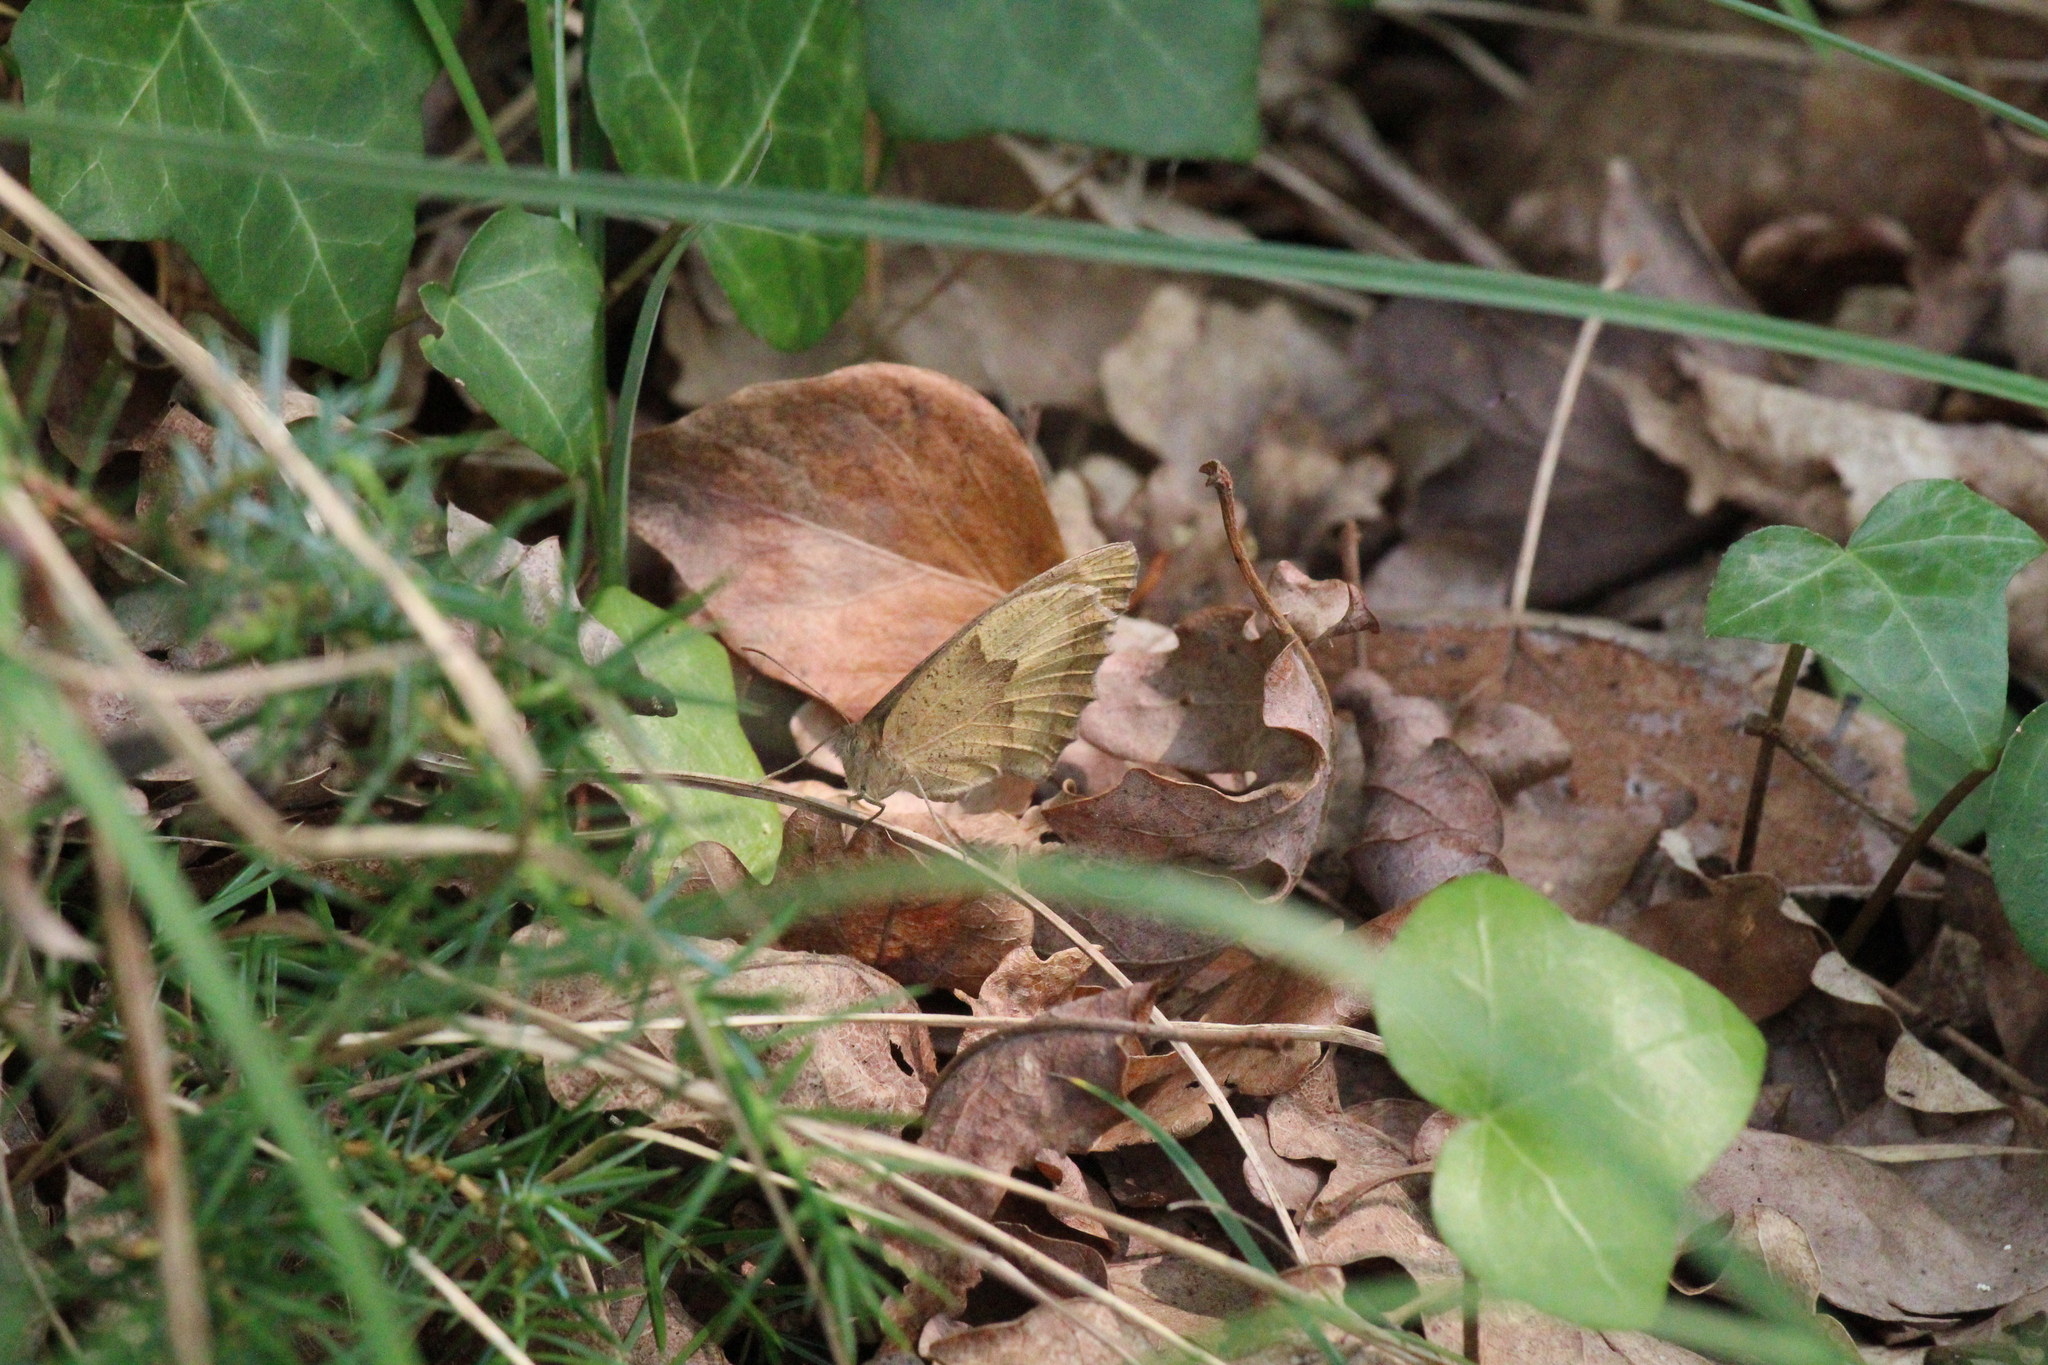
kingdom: Animalia
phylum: Arthropoda
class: Insecta
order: Lepidoptera
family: Nymphalidae
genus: Maniola
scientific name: Maniola jurtina
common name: Meadow brown
